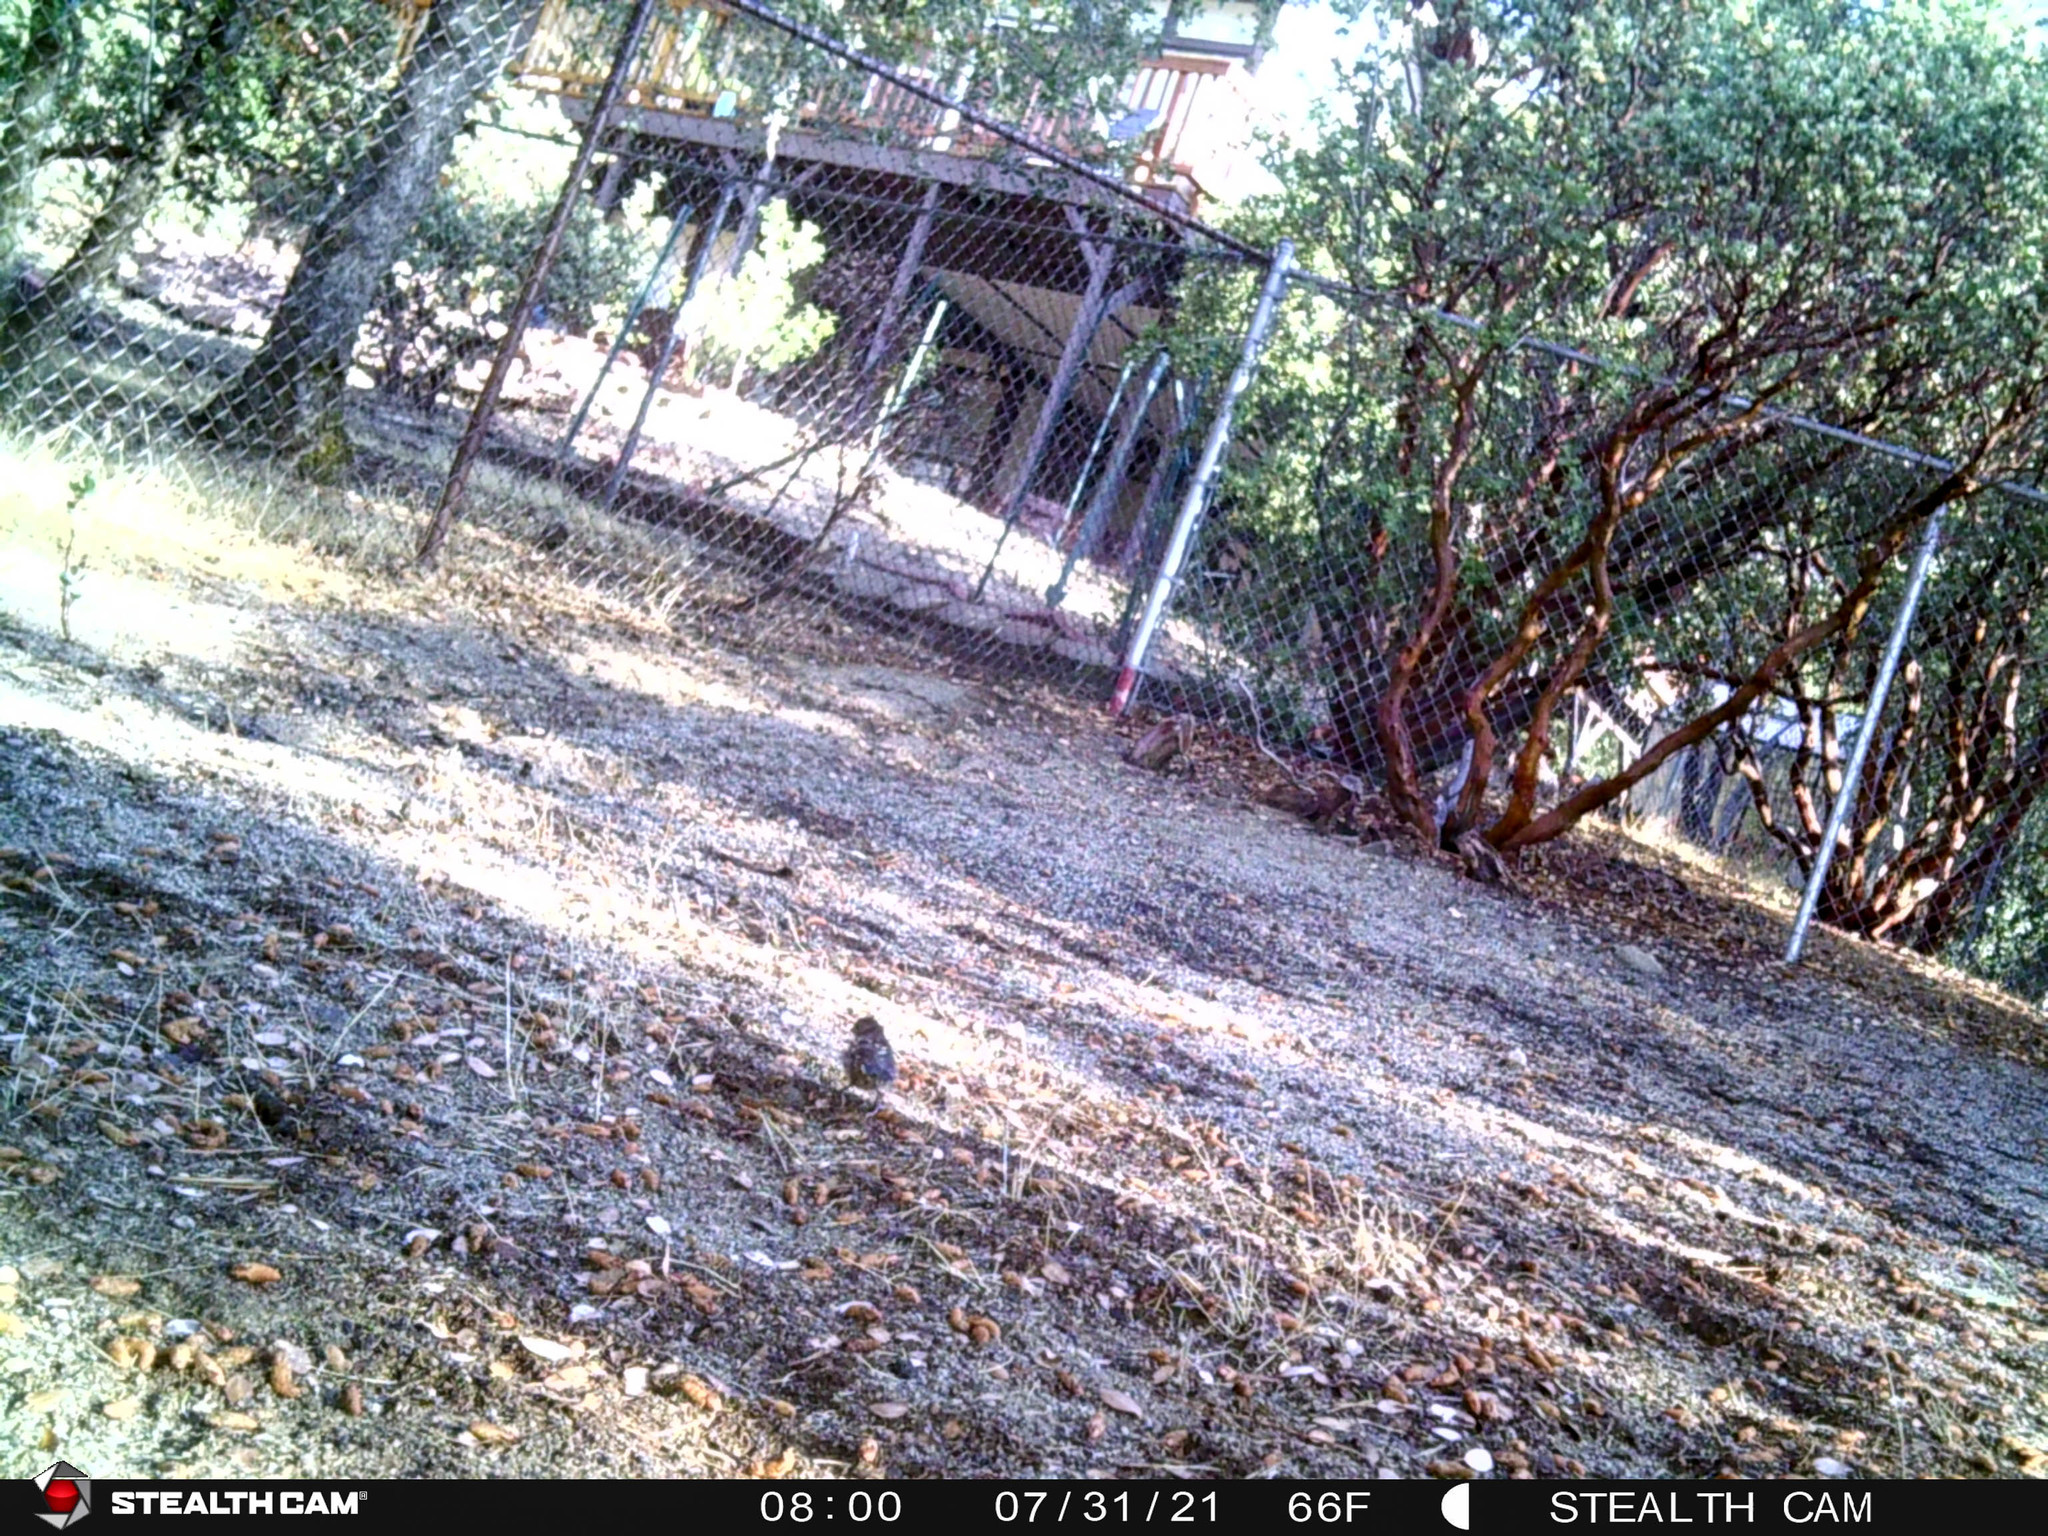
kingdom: Animalia
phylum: Chordata
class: Aves
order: Passeriformes
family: Passerellidae
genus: Pipilo
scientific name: Pipilo maculatus
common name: Spotted towhee
